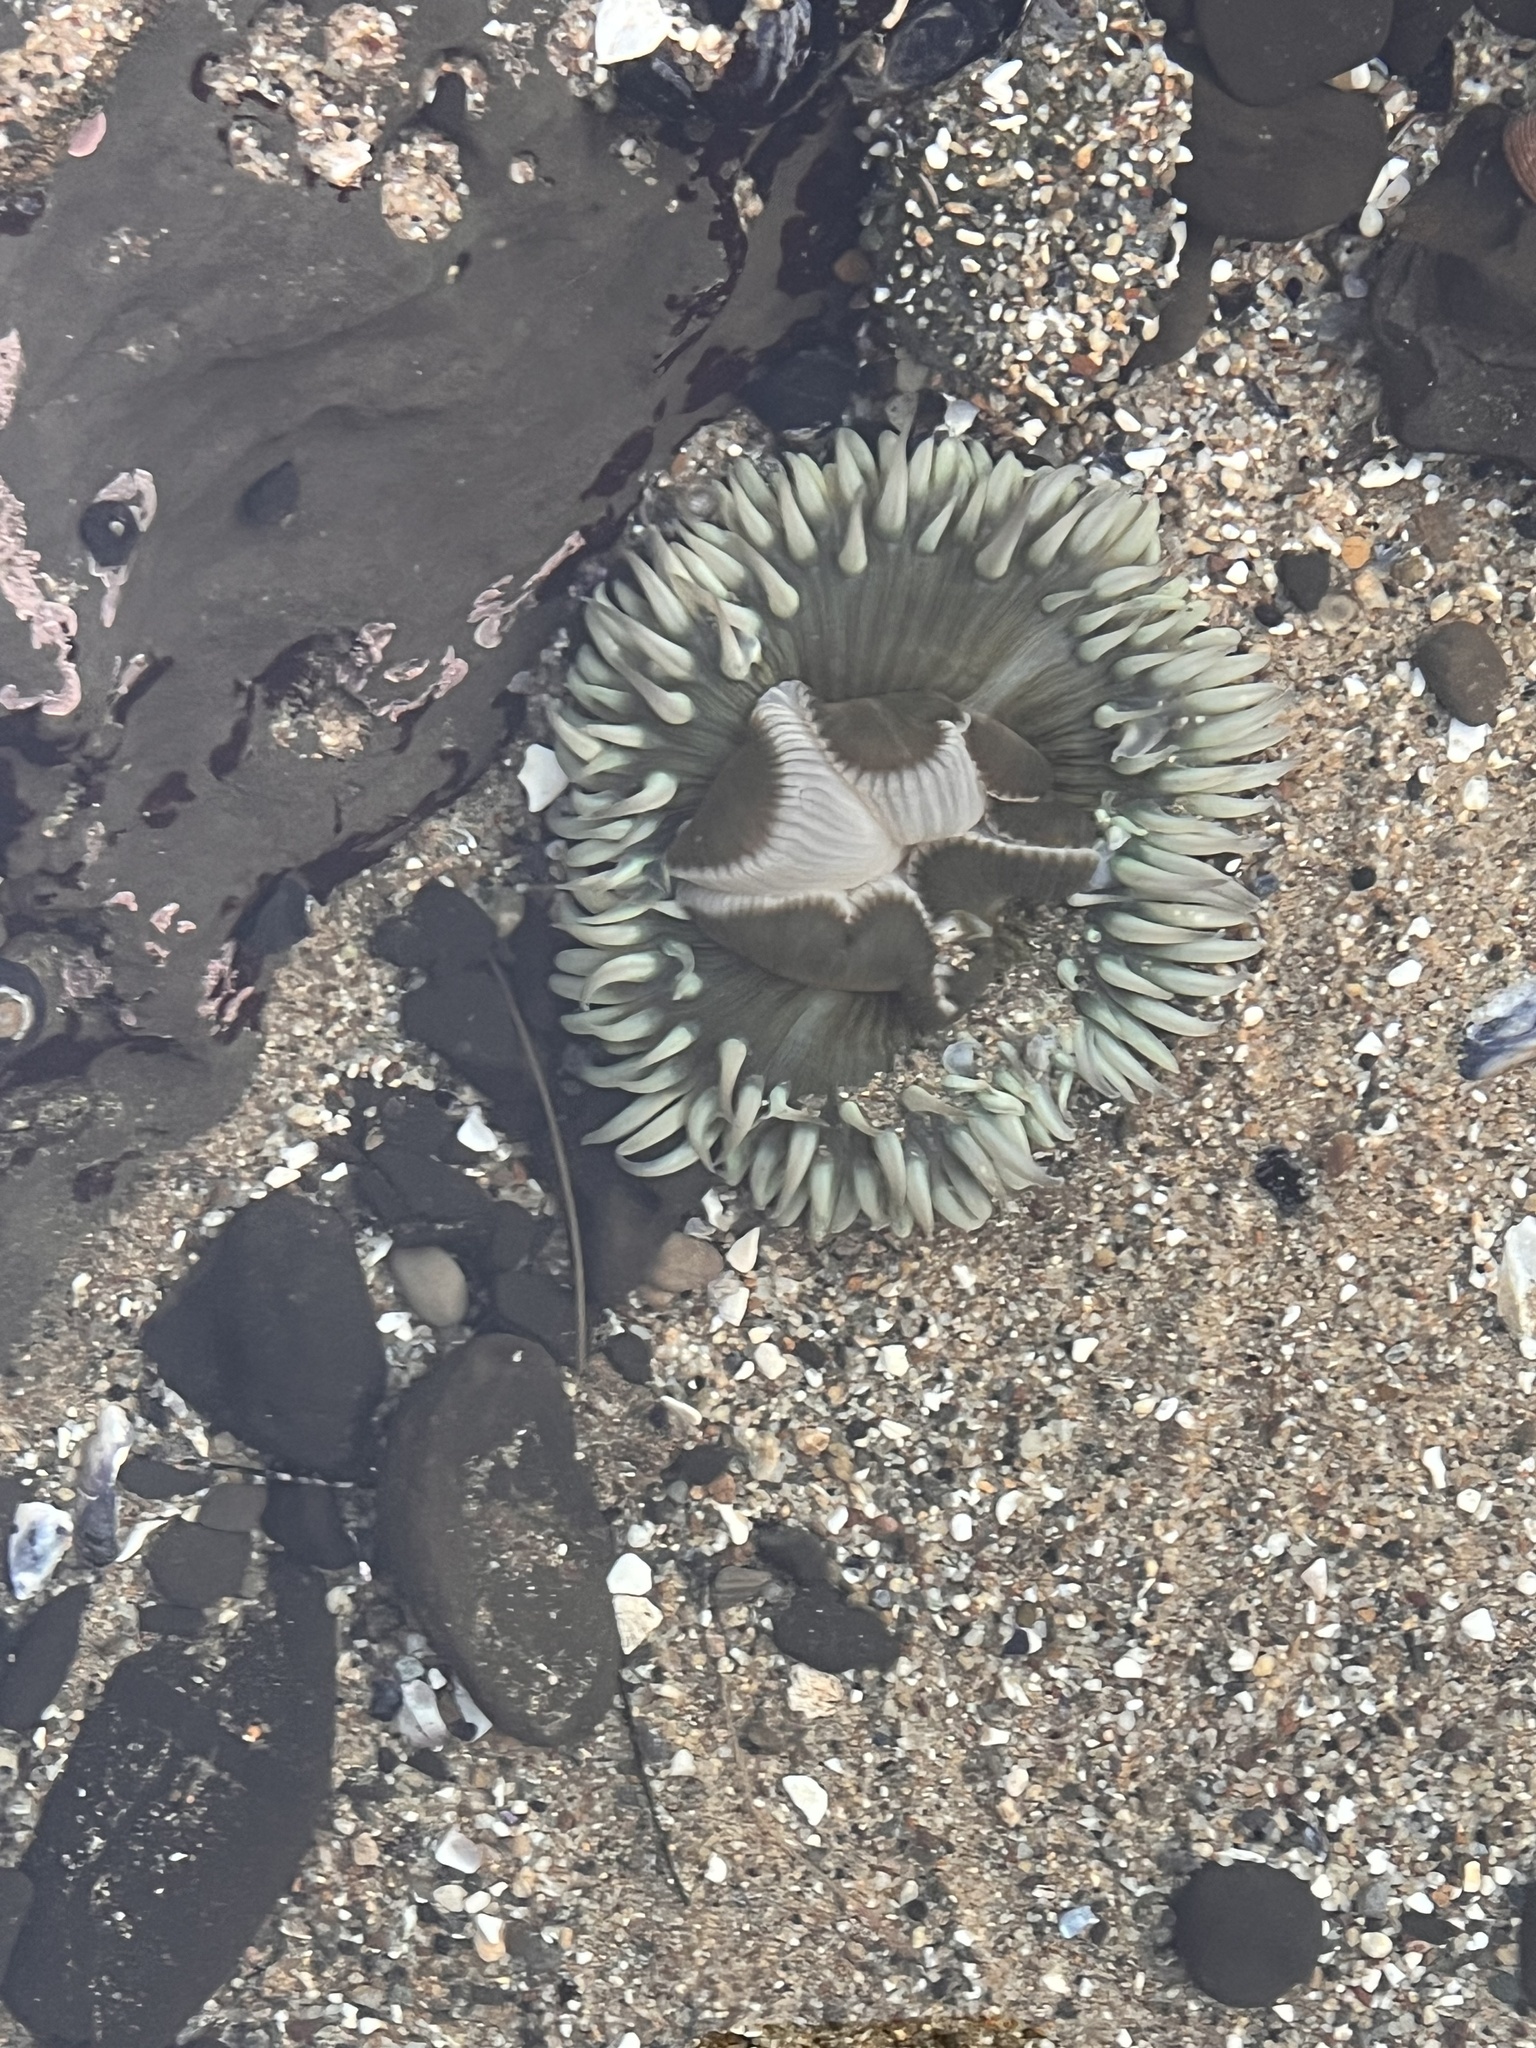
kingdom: Animalia
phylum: Cnidaria
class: Anthozoa
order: Actiniaria
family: Actiniidae
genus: Anthopleura
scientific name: Anthopleura sola
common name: Sun anemone
